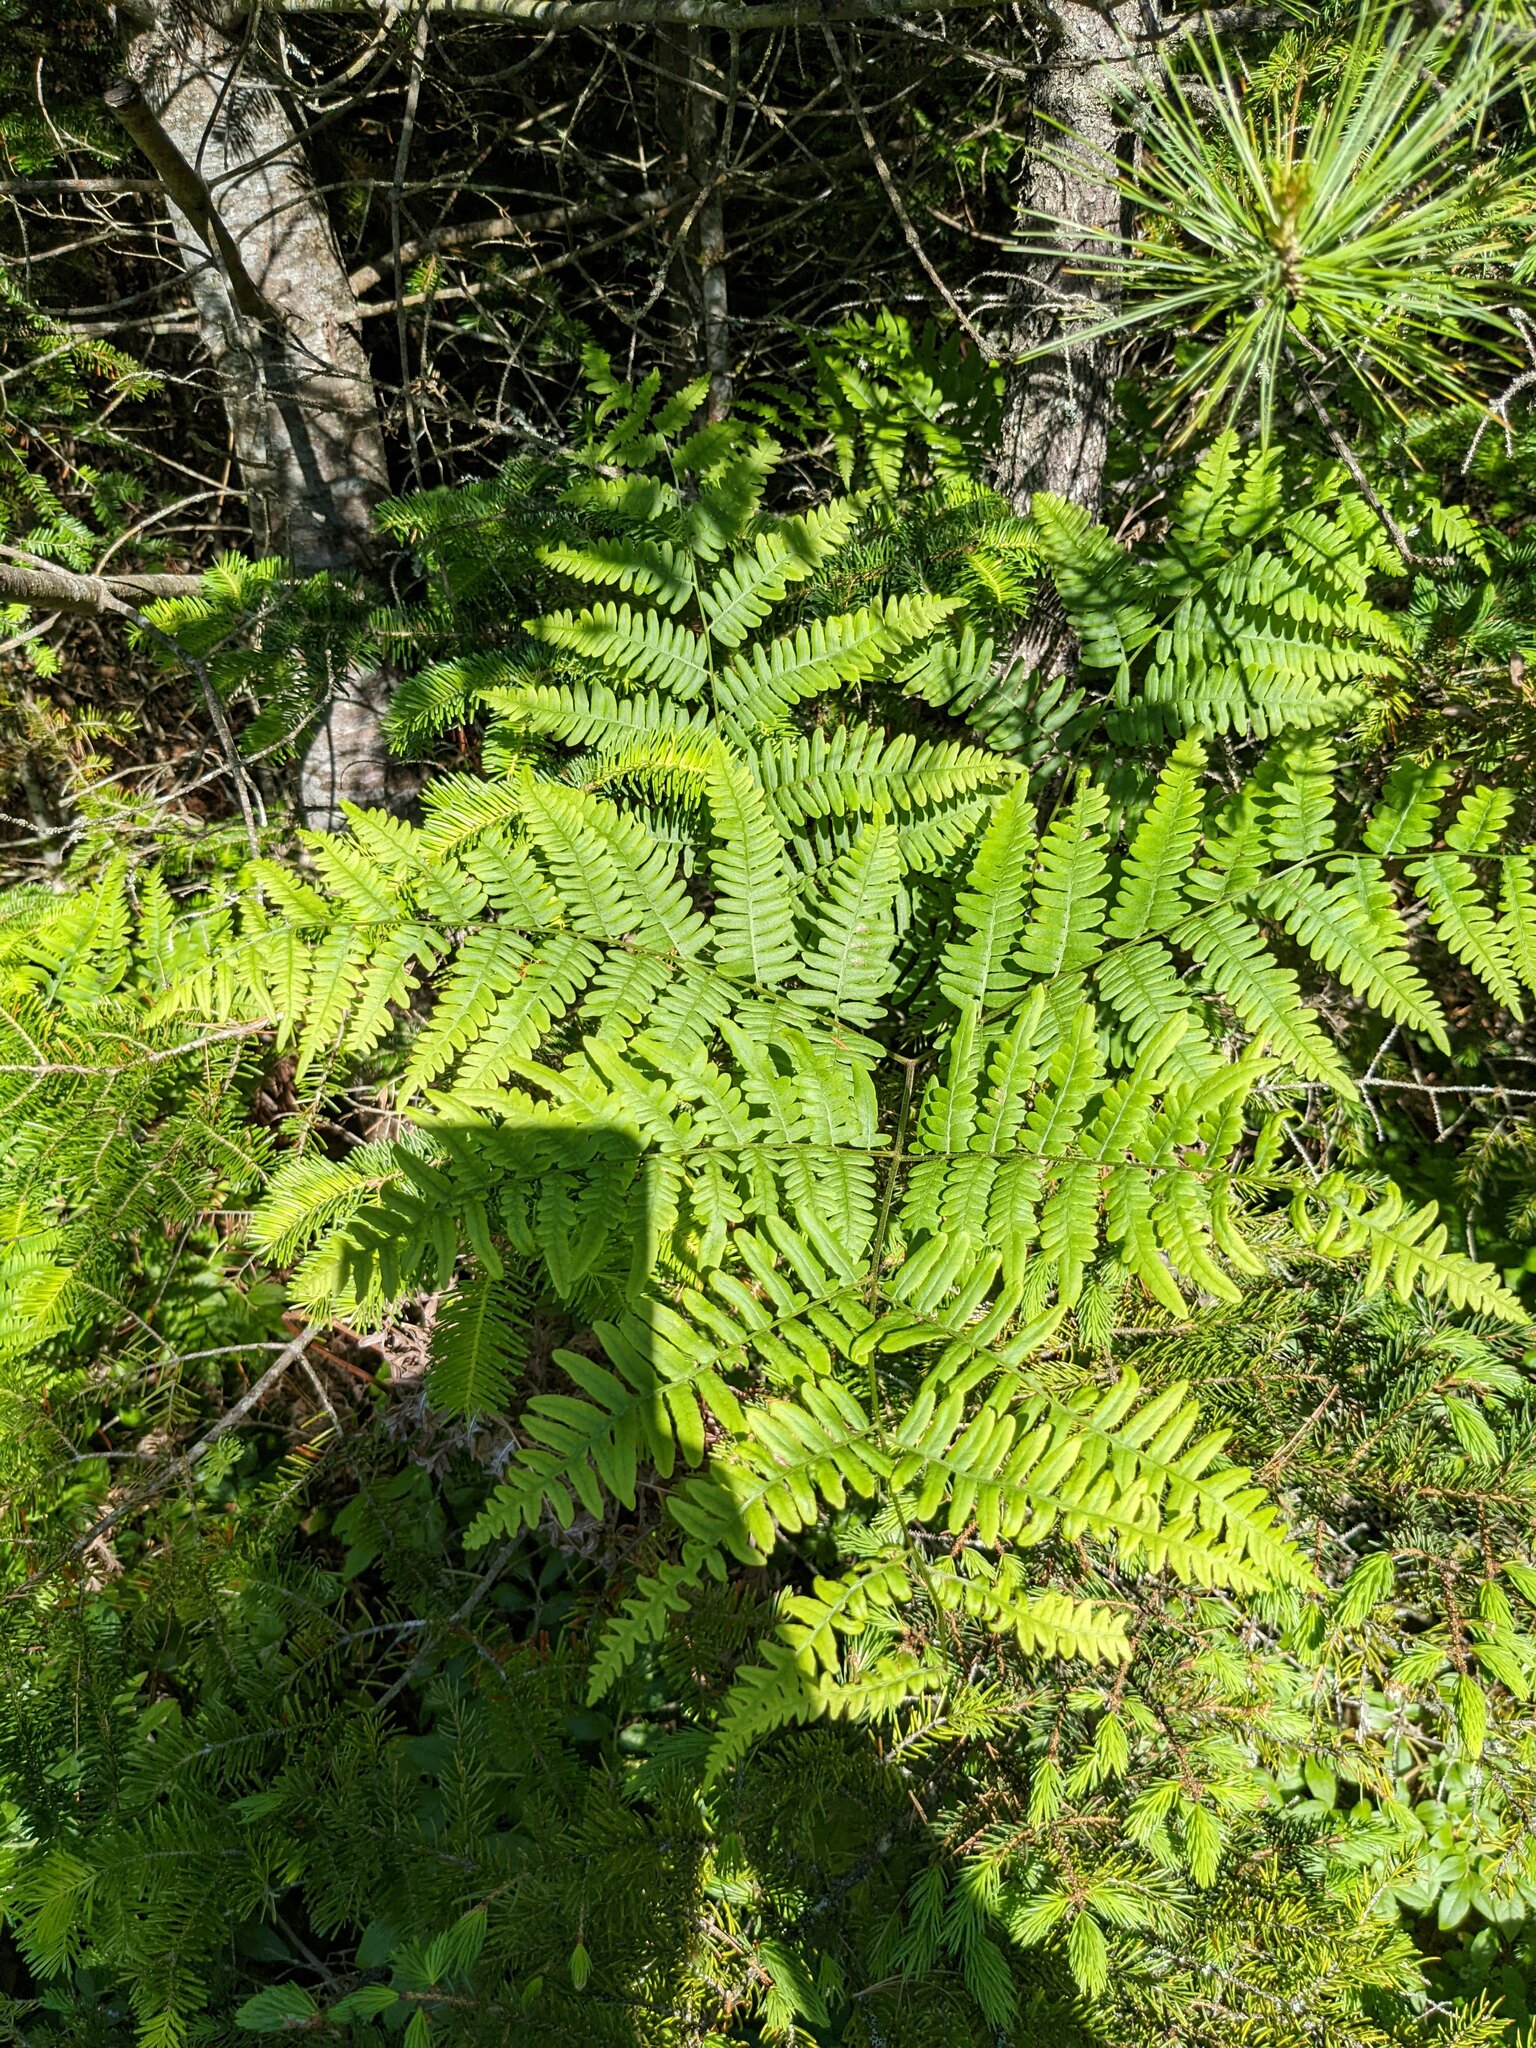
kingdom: Plantae
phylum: Tracheophyta
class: Polypodiopsida
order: Polypodiales
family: Dennstaedtiaceae
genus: Pteridium
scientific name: Pteridium aquilinum
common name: Bracken
